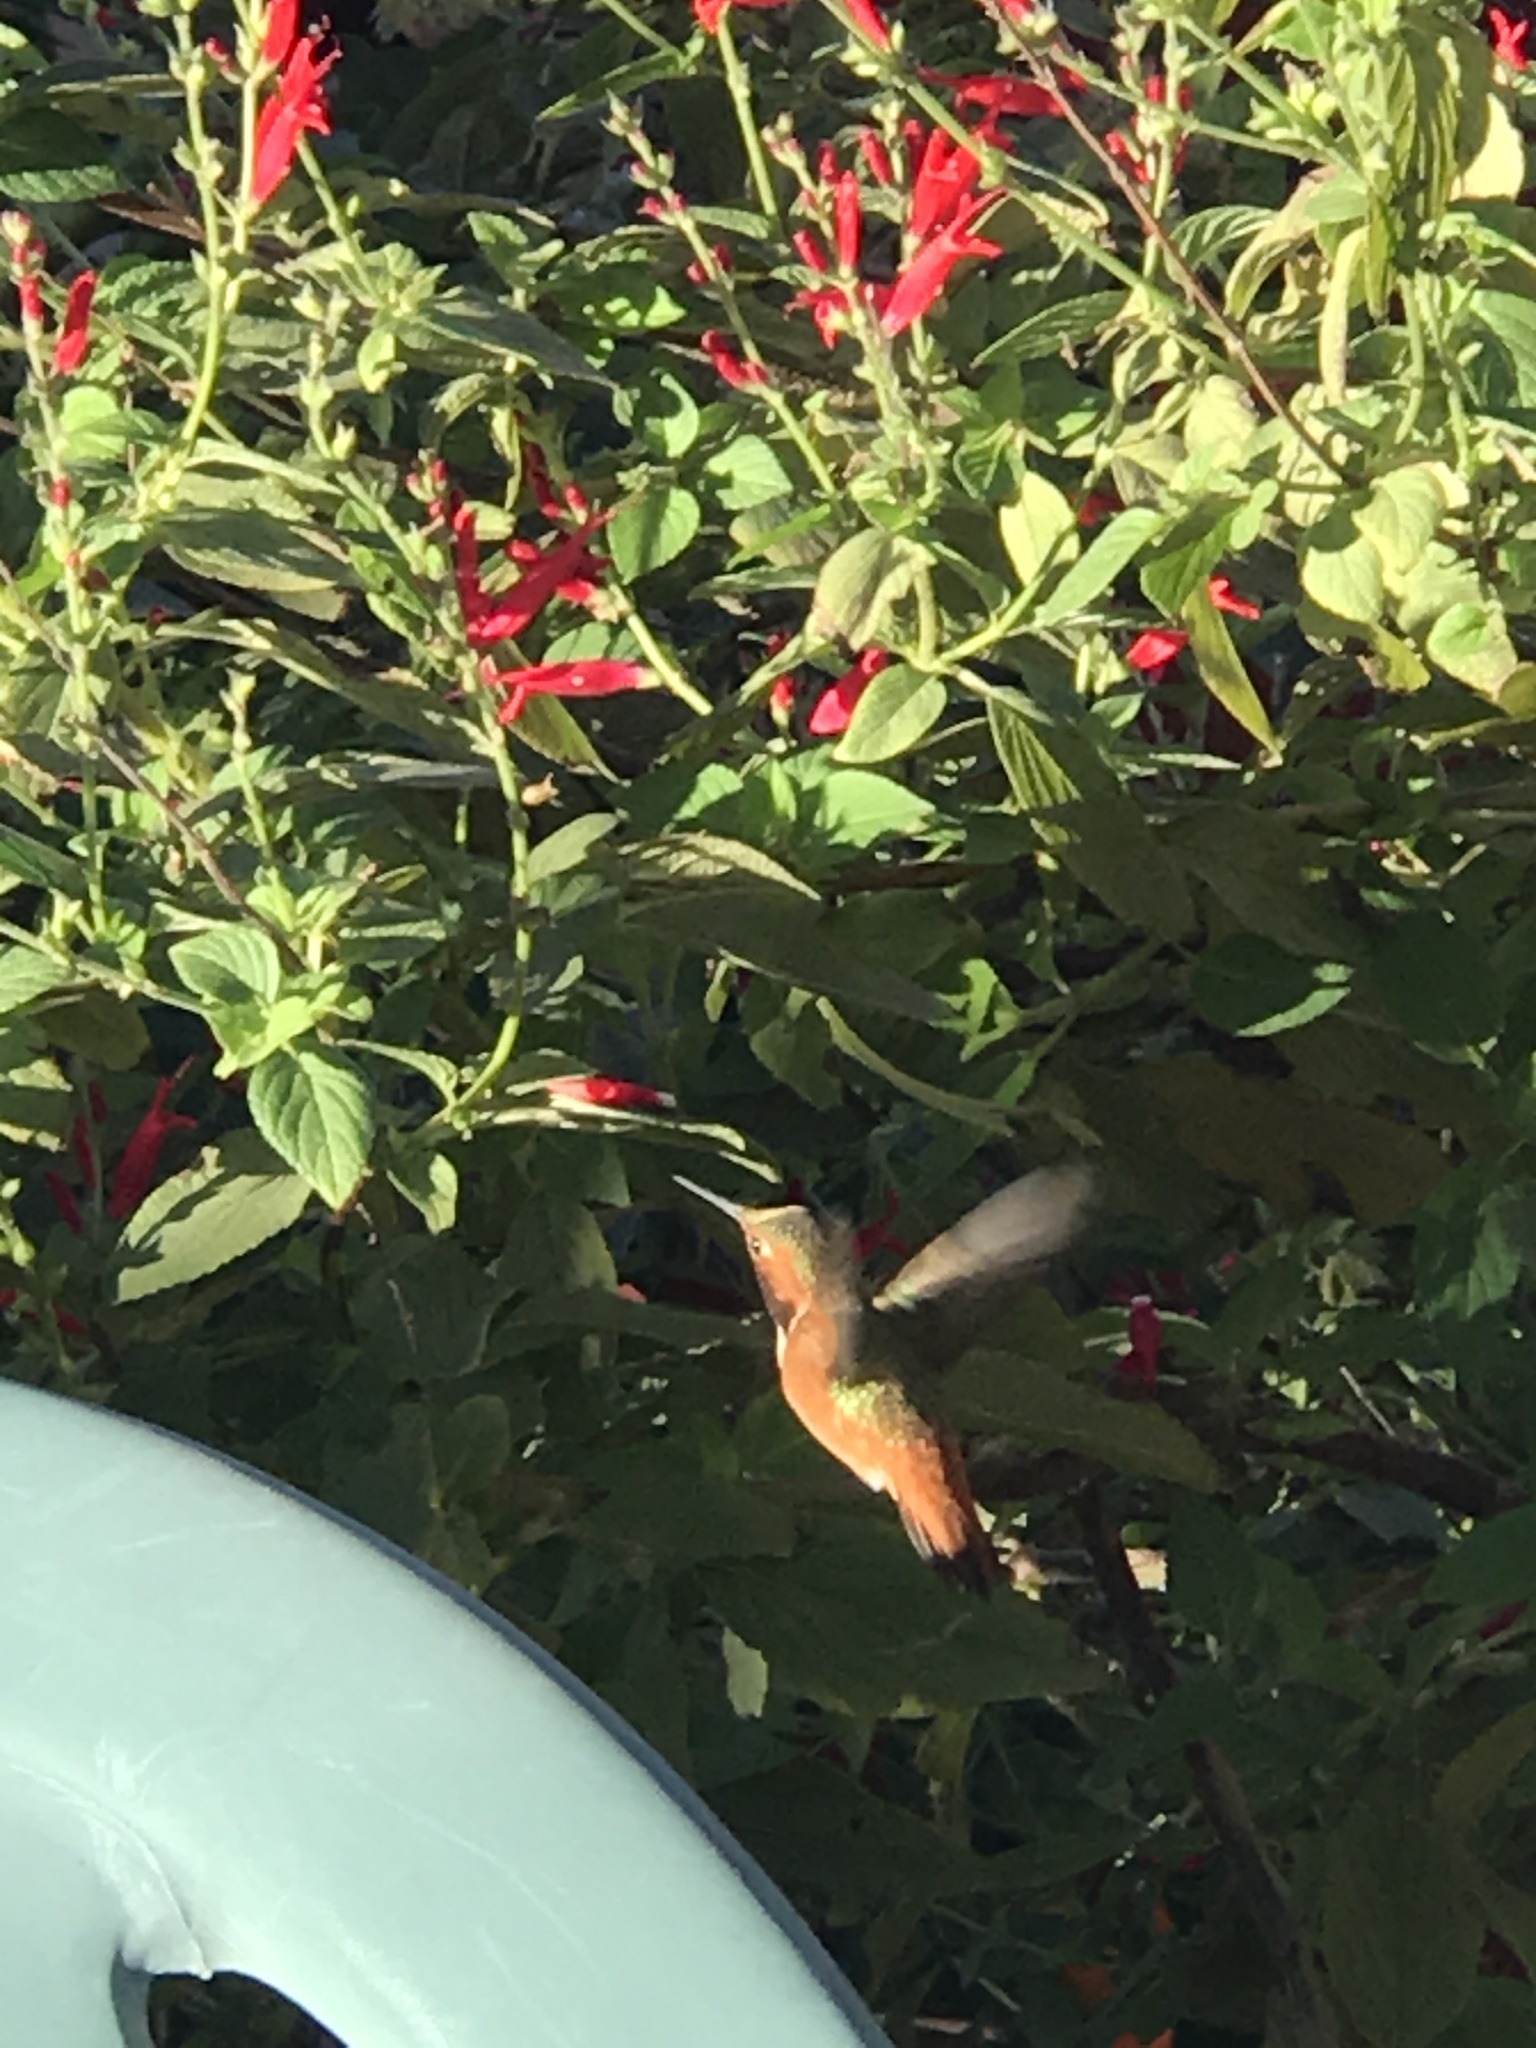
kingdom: Animalia
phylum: Chordata
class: Aves
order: Apodiformes
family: Trochilidae
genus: Selasphorus
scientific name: Selasphorus sasin
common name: Allen's hummingbird
